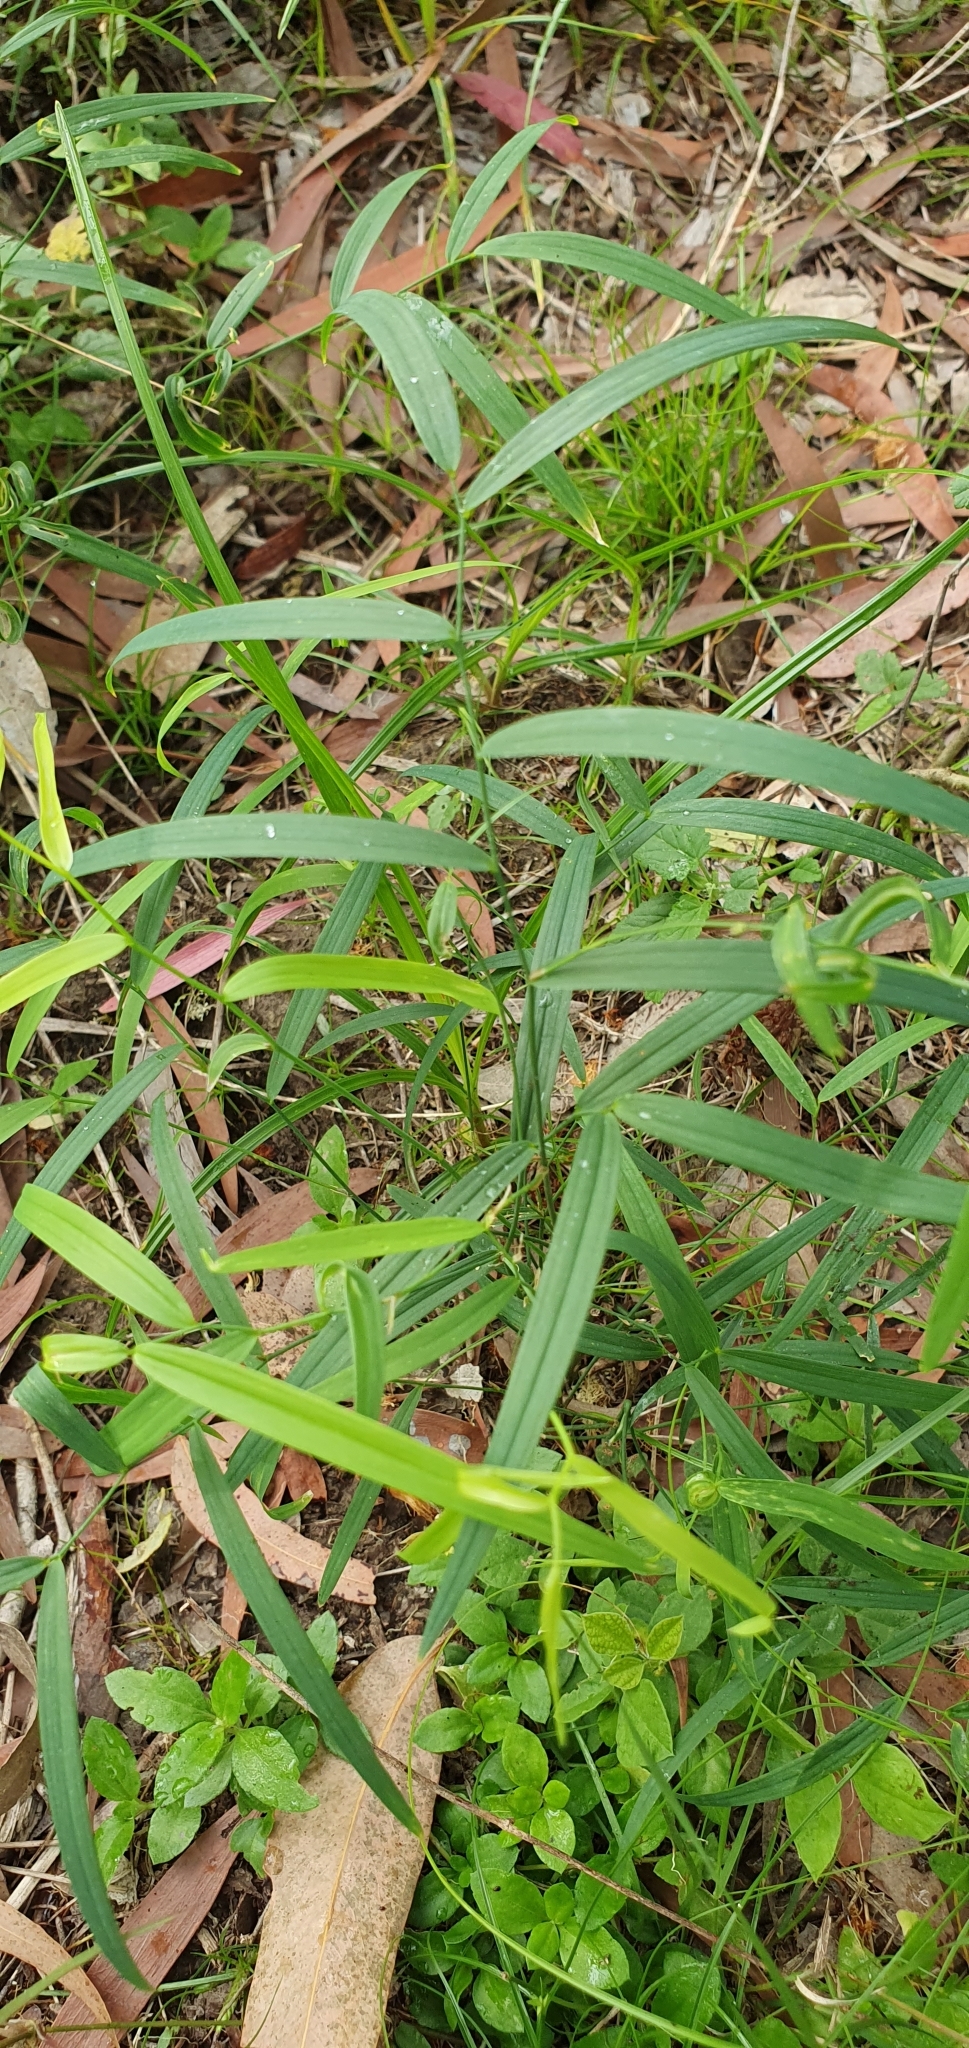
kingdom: Plantae
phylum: Tracheophyta
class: Liliopsida
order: Asparagales
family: Asparagaceae
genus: Eustrephus
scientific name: Eustrephus latifolius
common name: Orangevine
